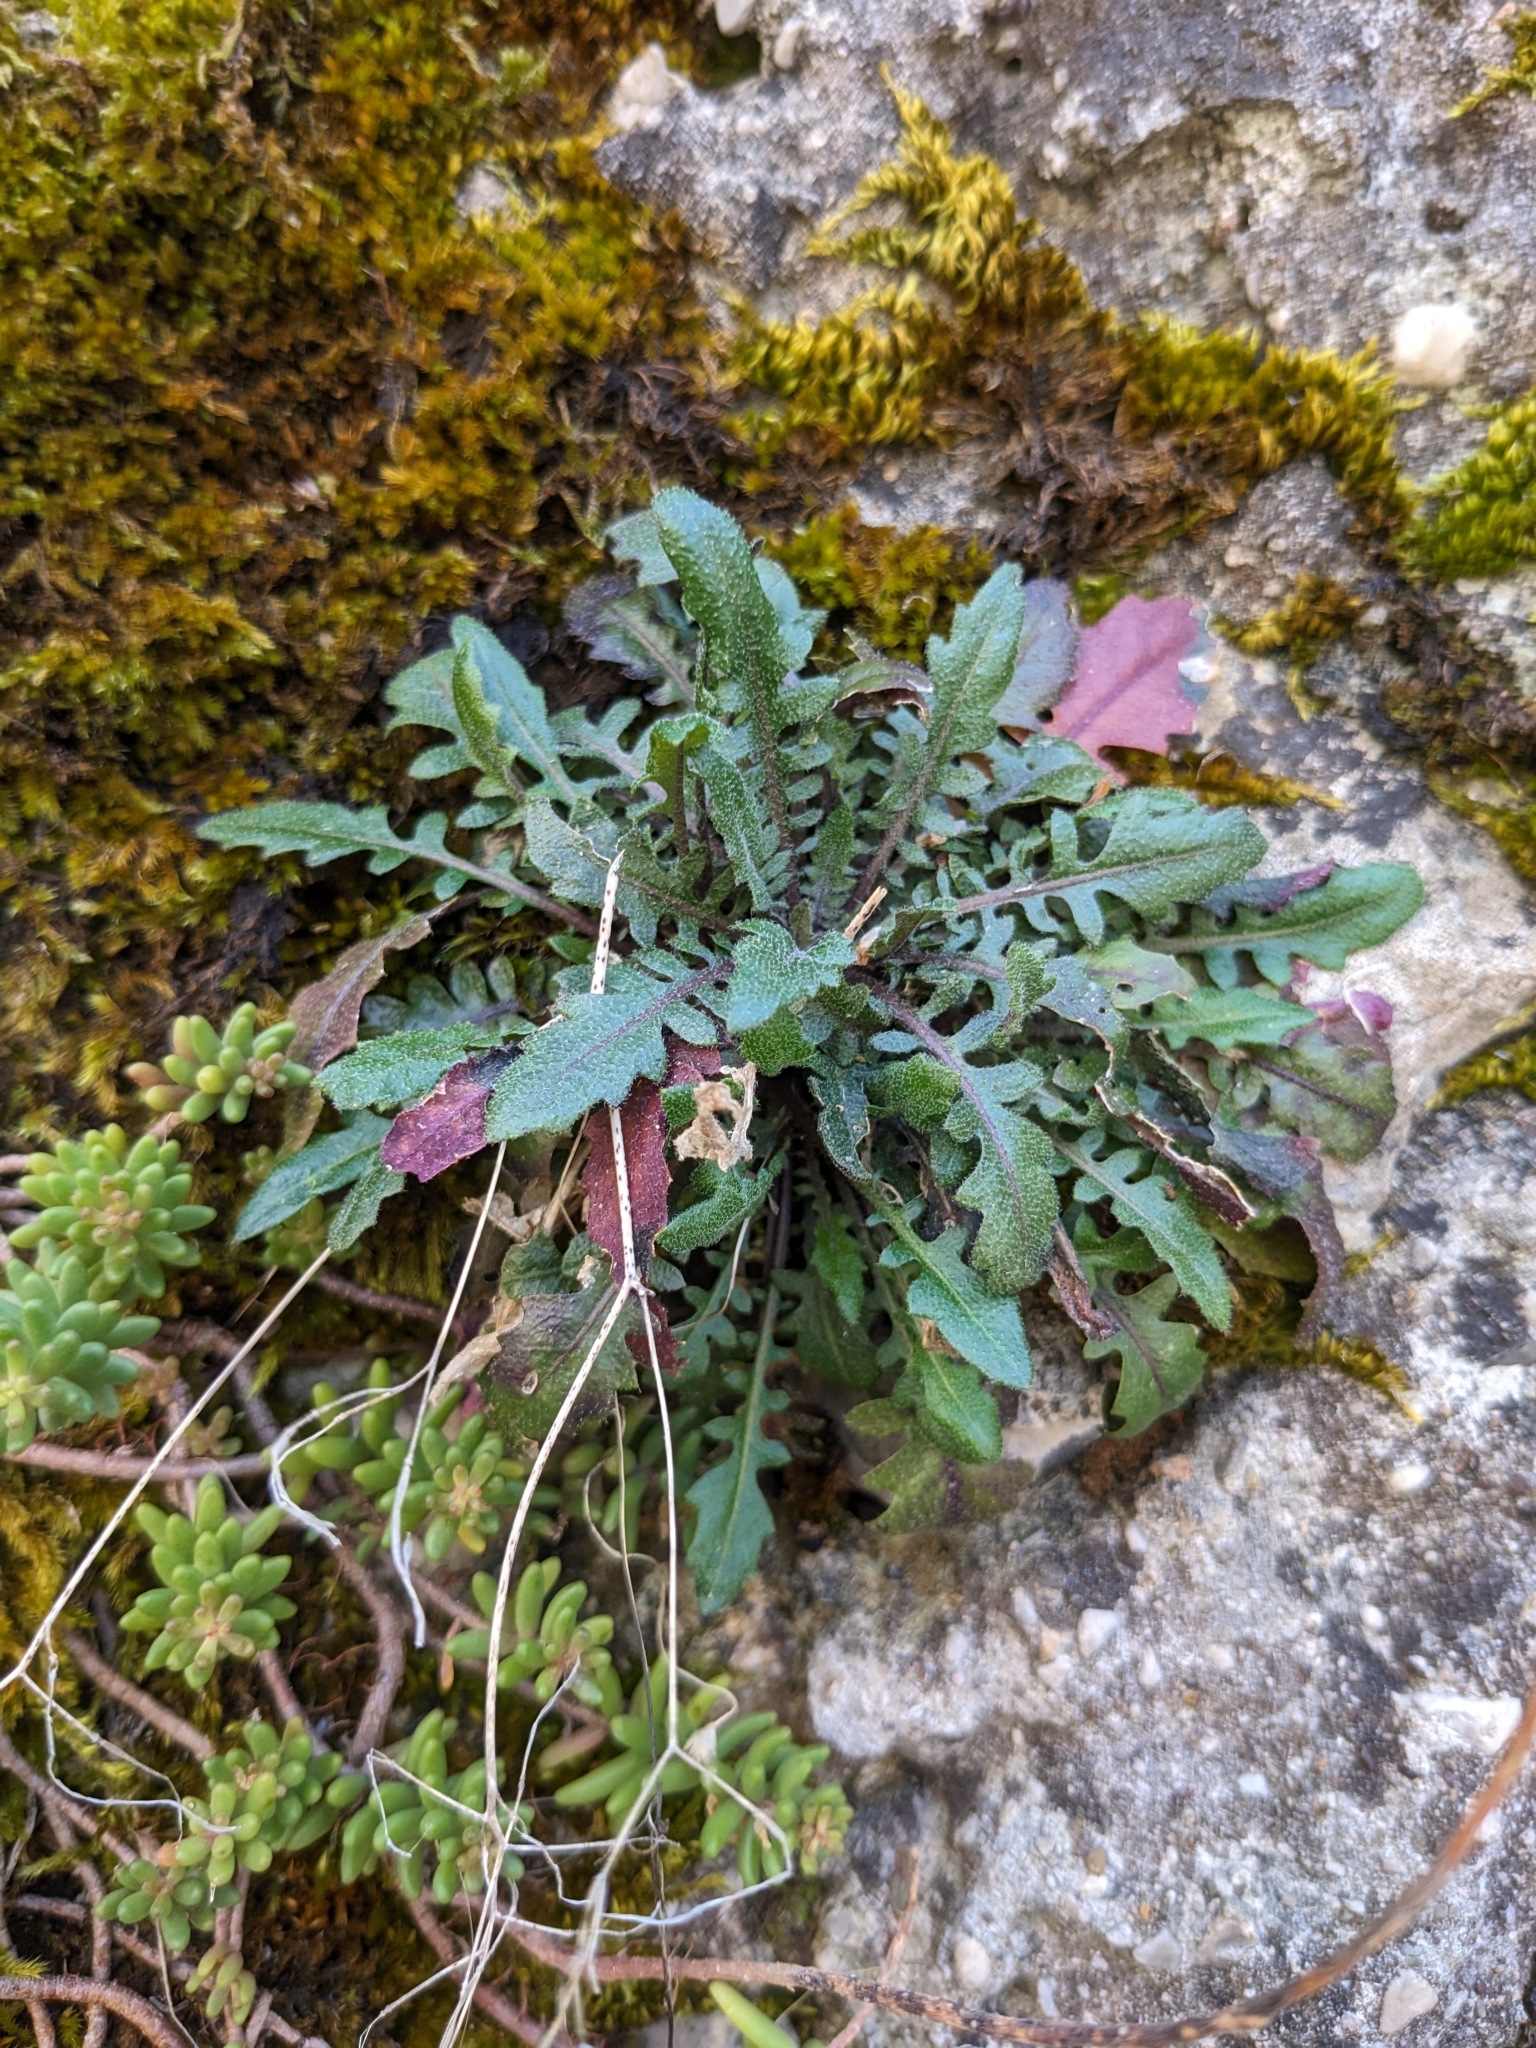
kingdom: Plantae
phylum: Tracheophyta
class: Magnoliopsida
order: Brassicales
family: Brassicaceae
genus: Arabidopsis
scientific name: Arabidopsis arenosa
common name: Sand rock-cress
